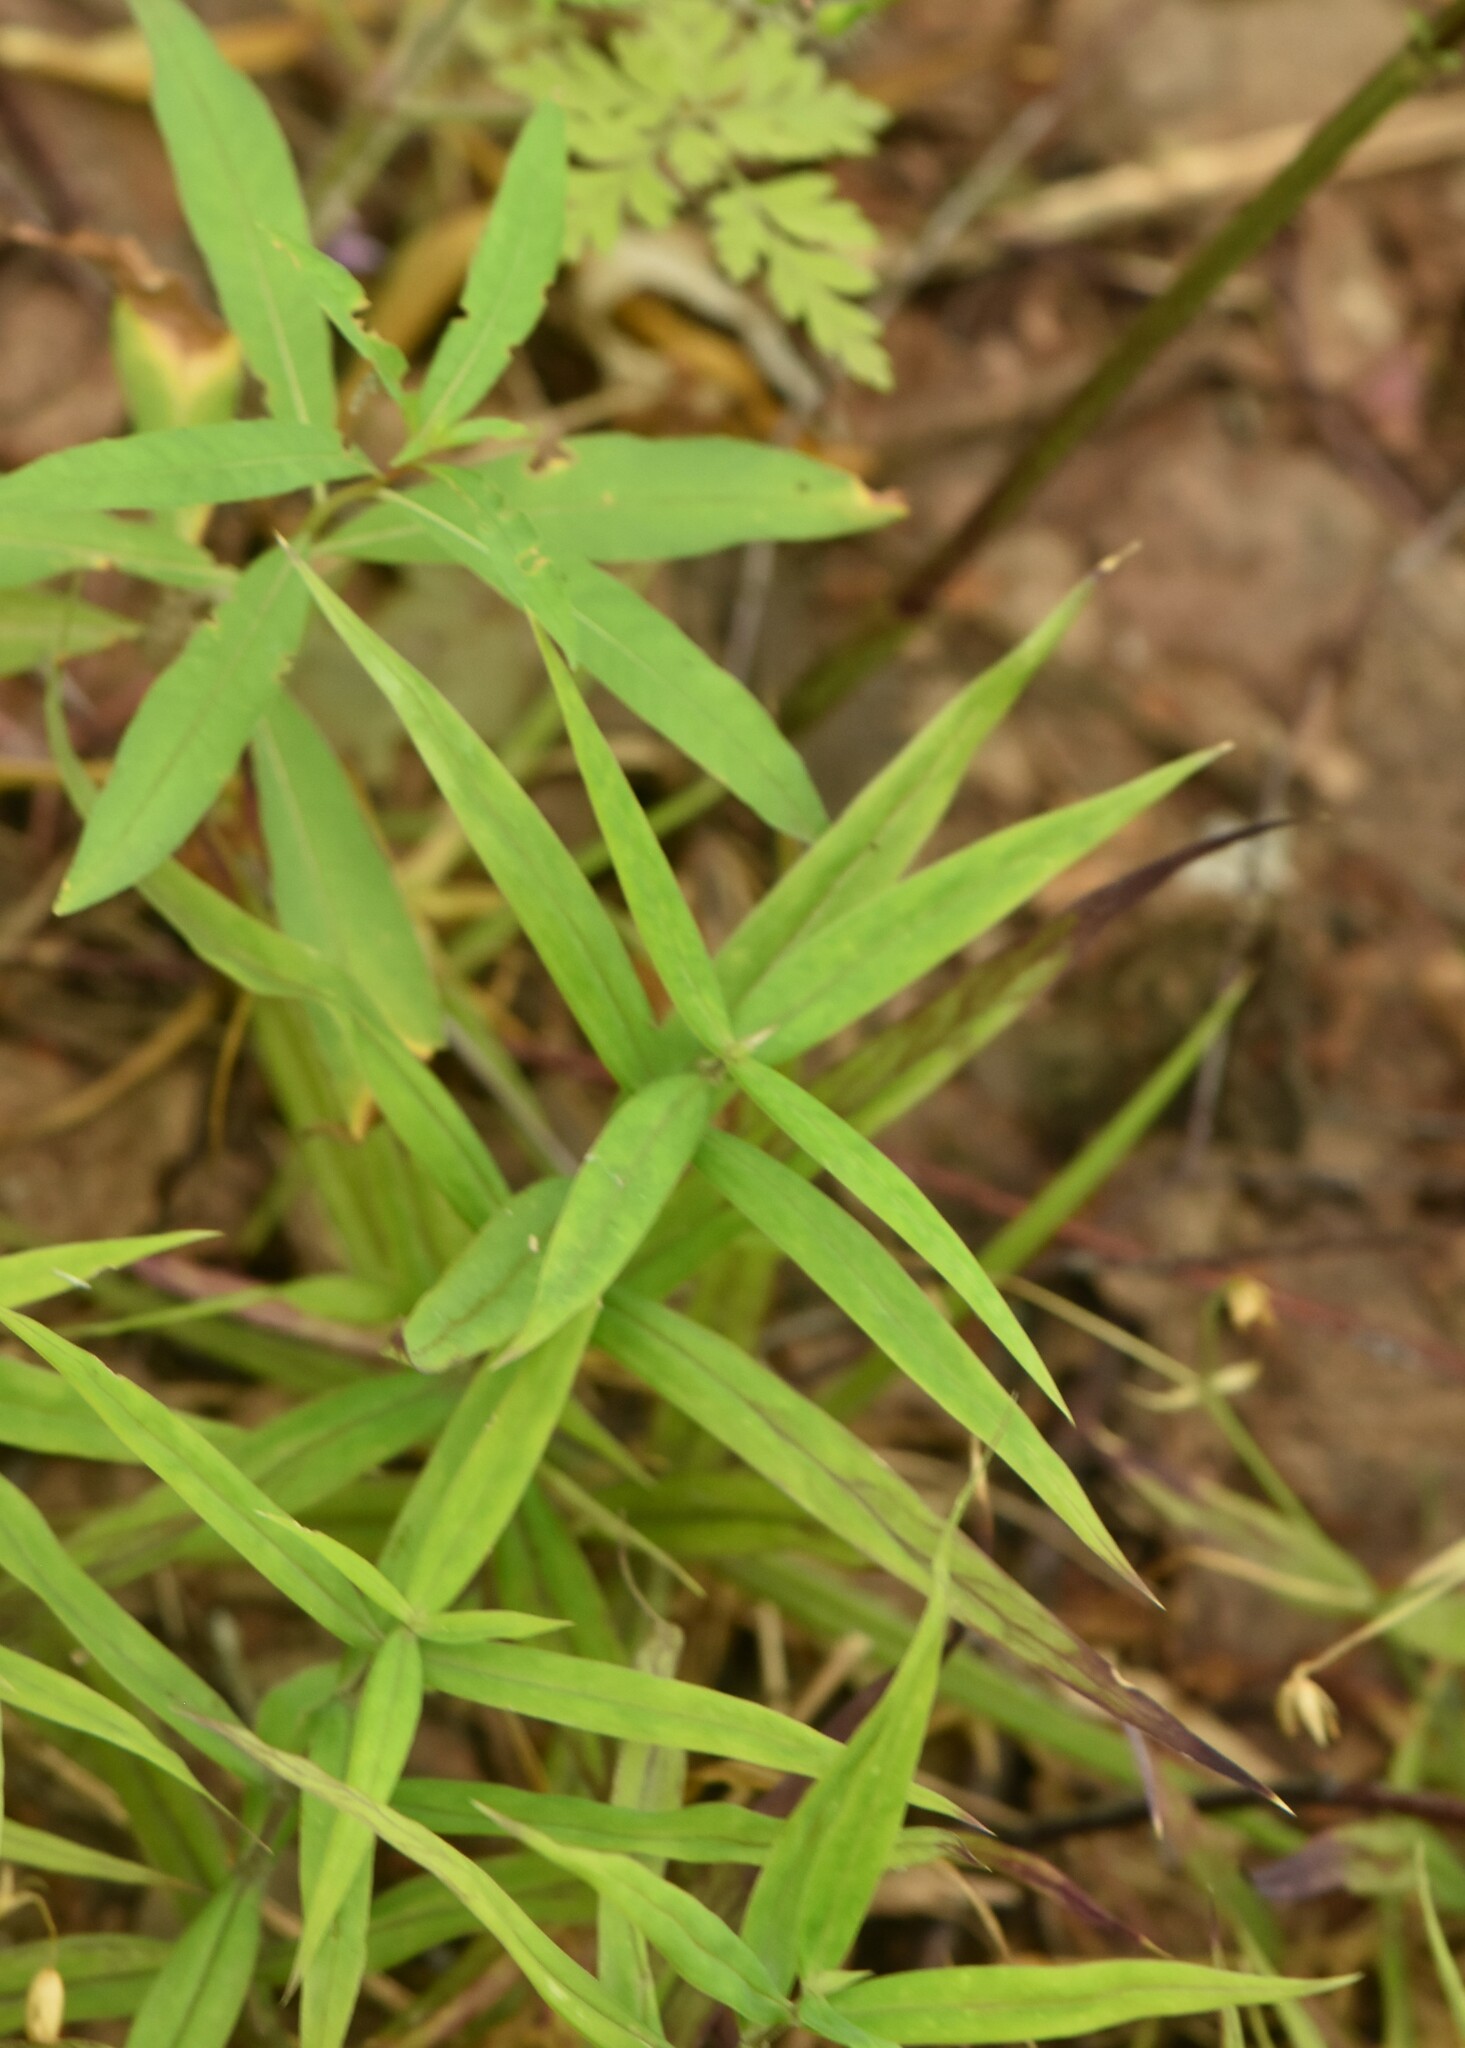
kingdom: Plantae
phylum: Tracheophyta
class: Magnoliopsida
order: Caryophyllales
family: Caryophyllaceae
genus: Rabelera
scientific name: Rabelera holostea
